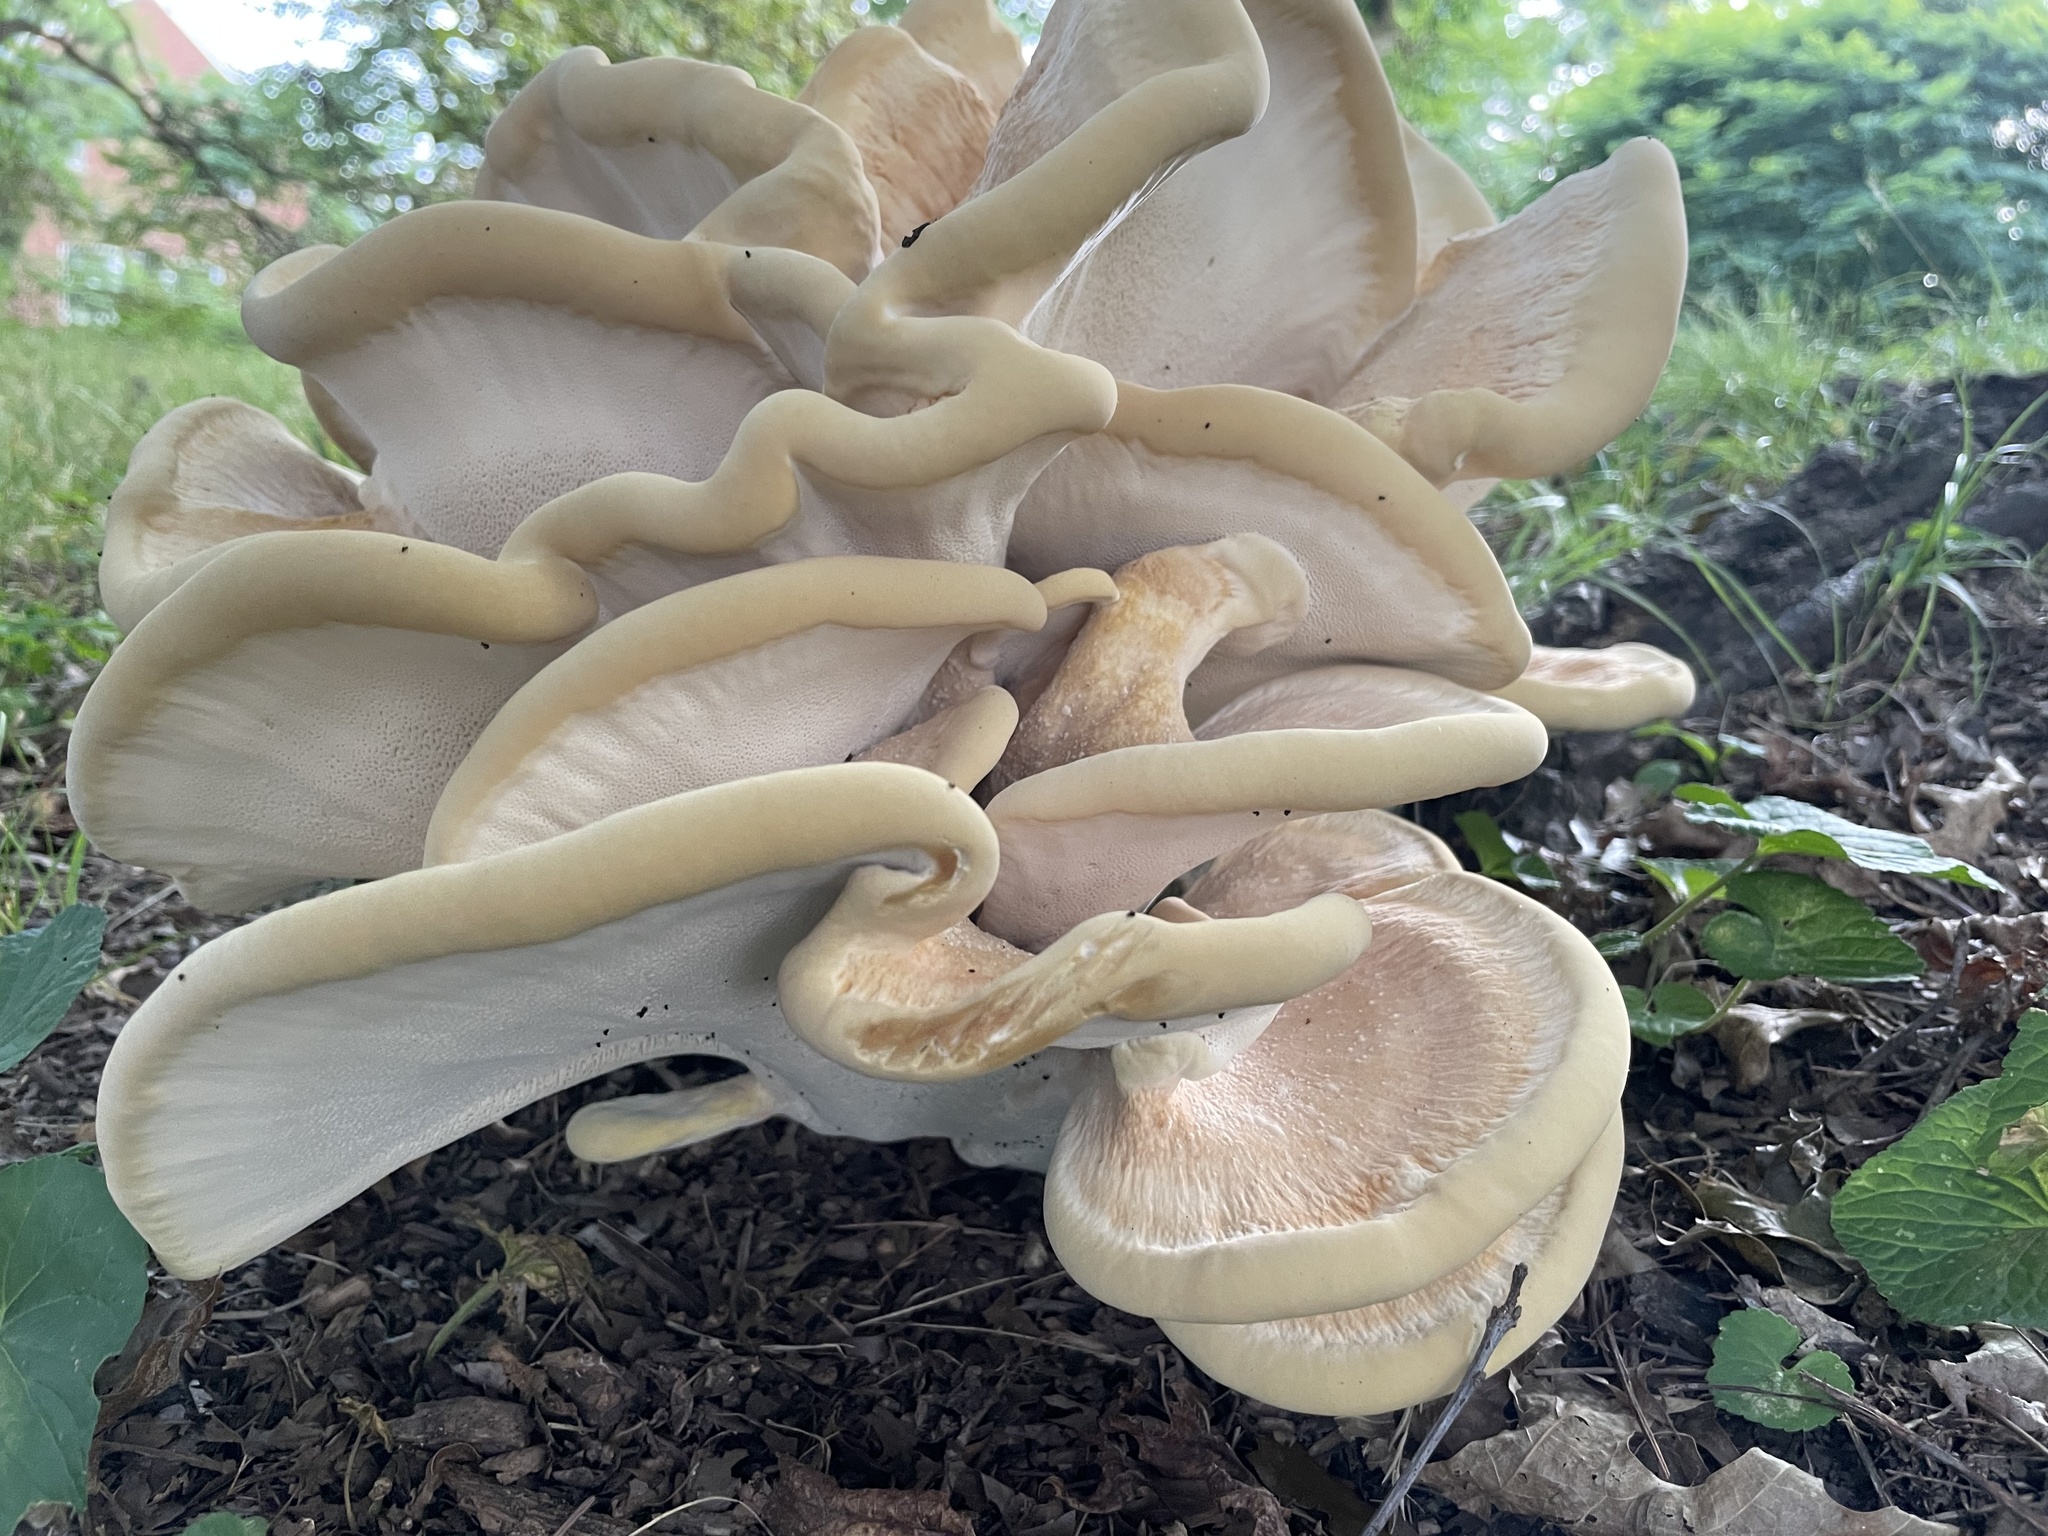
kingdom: Fungi
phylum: Basidiomycota
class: Agaricomycetes
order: Russulales
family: Bondarzewiaceae
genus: Bondarzewia
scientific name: Bondarzewia berkeleyi
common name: Berkeley's polypore
